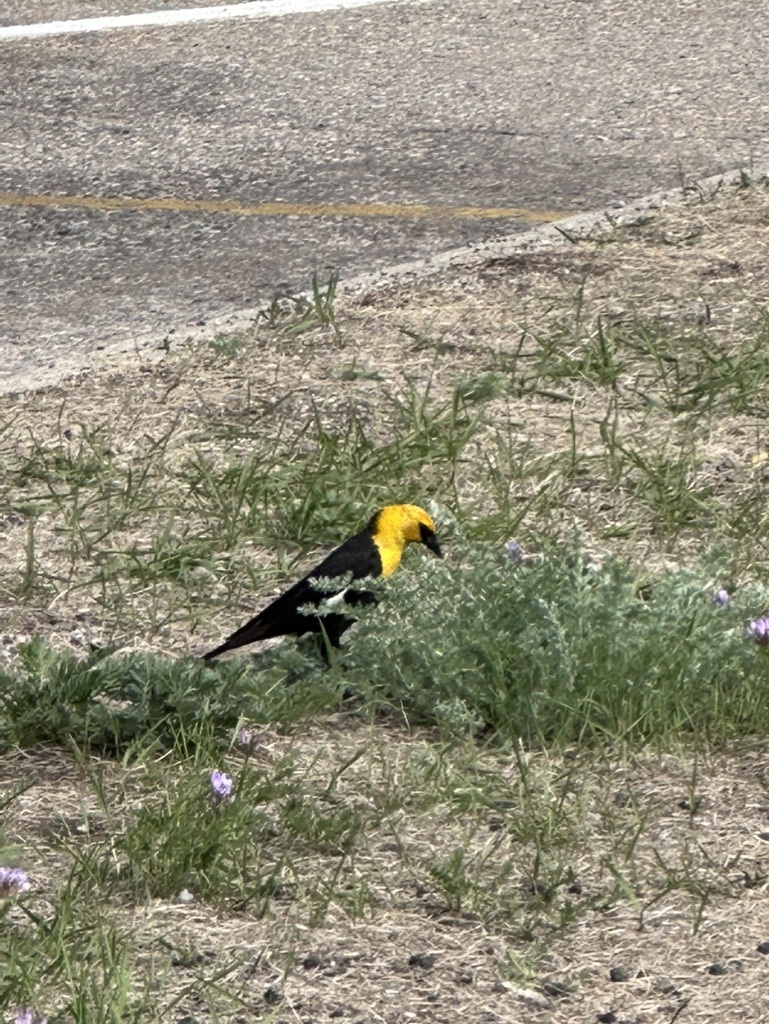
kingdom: Animalia
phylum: Chordata
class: Aves
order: Passeriformes
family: Icteridae
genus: Xanthocephalus
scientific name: Xanthocephalus xanthocephalus
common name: Yellow-headed blackbird
